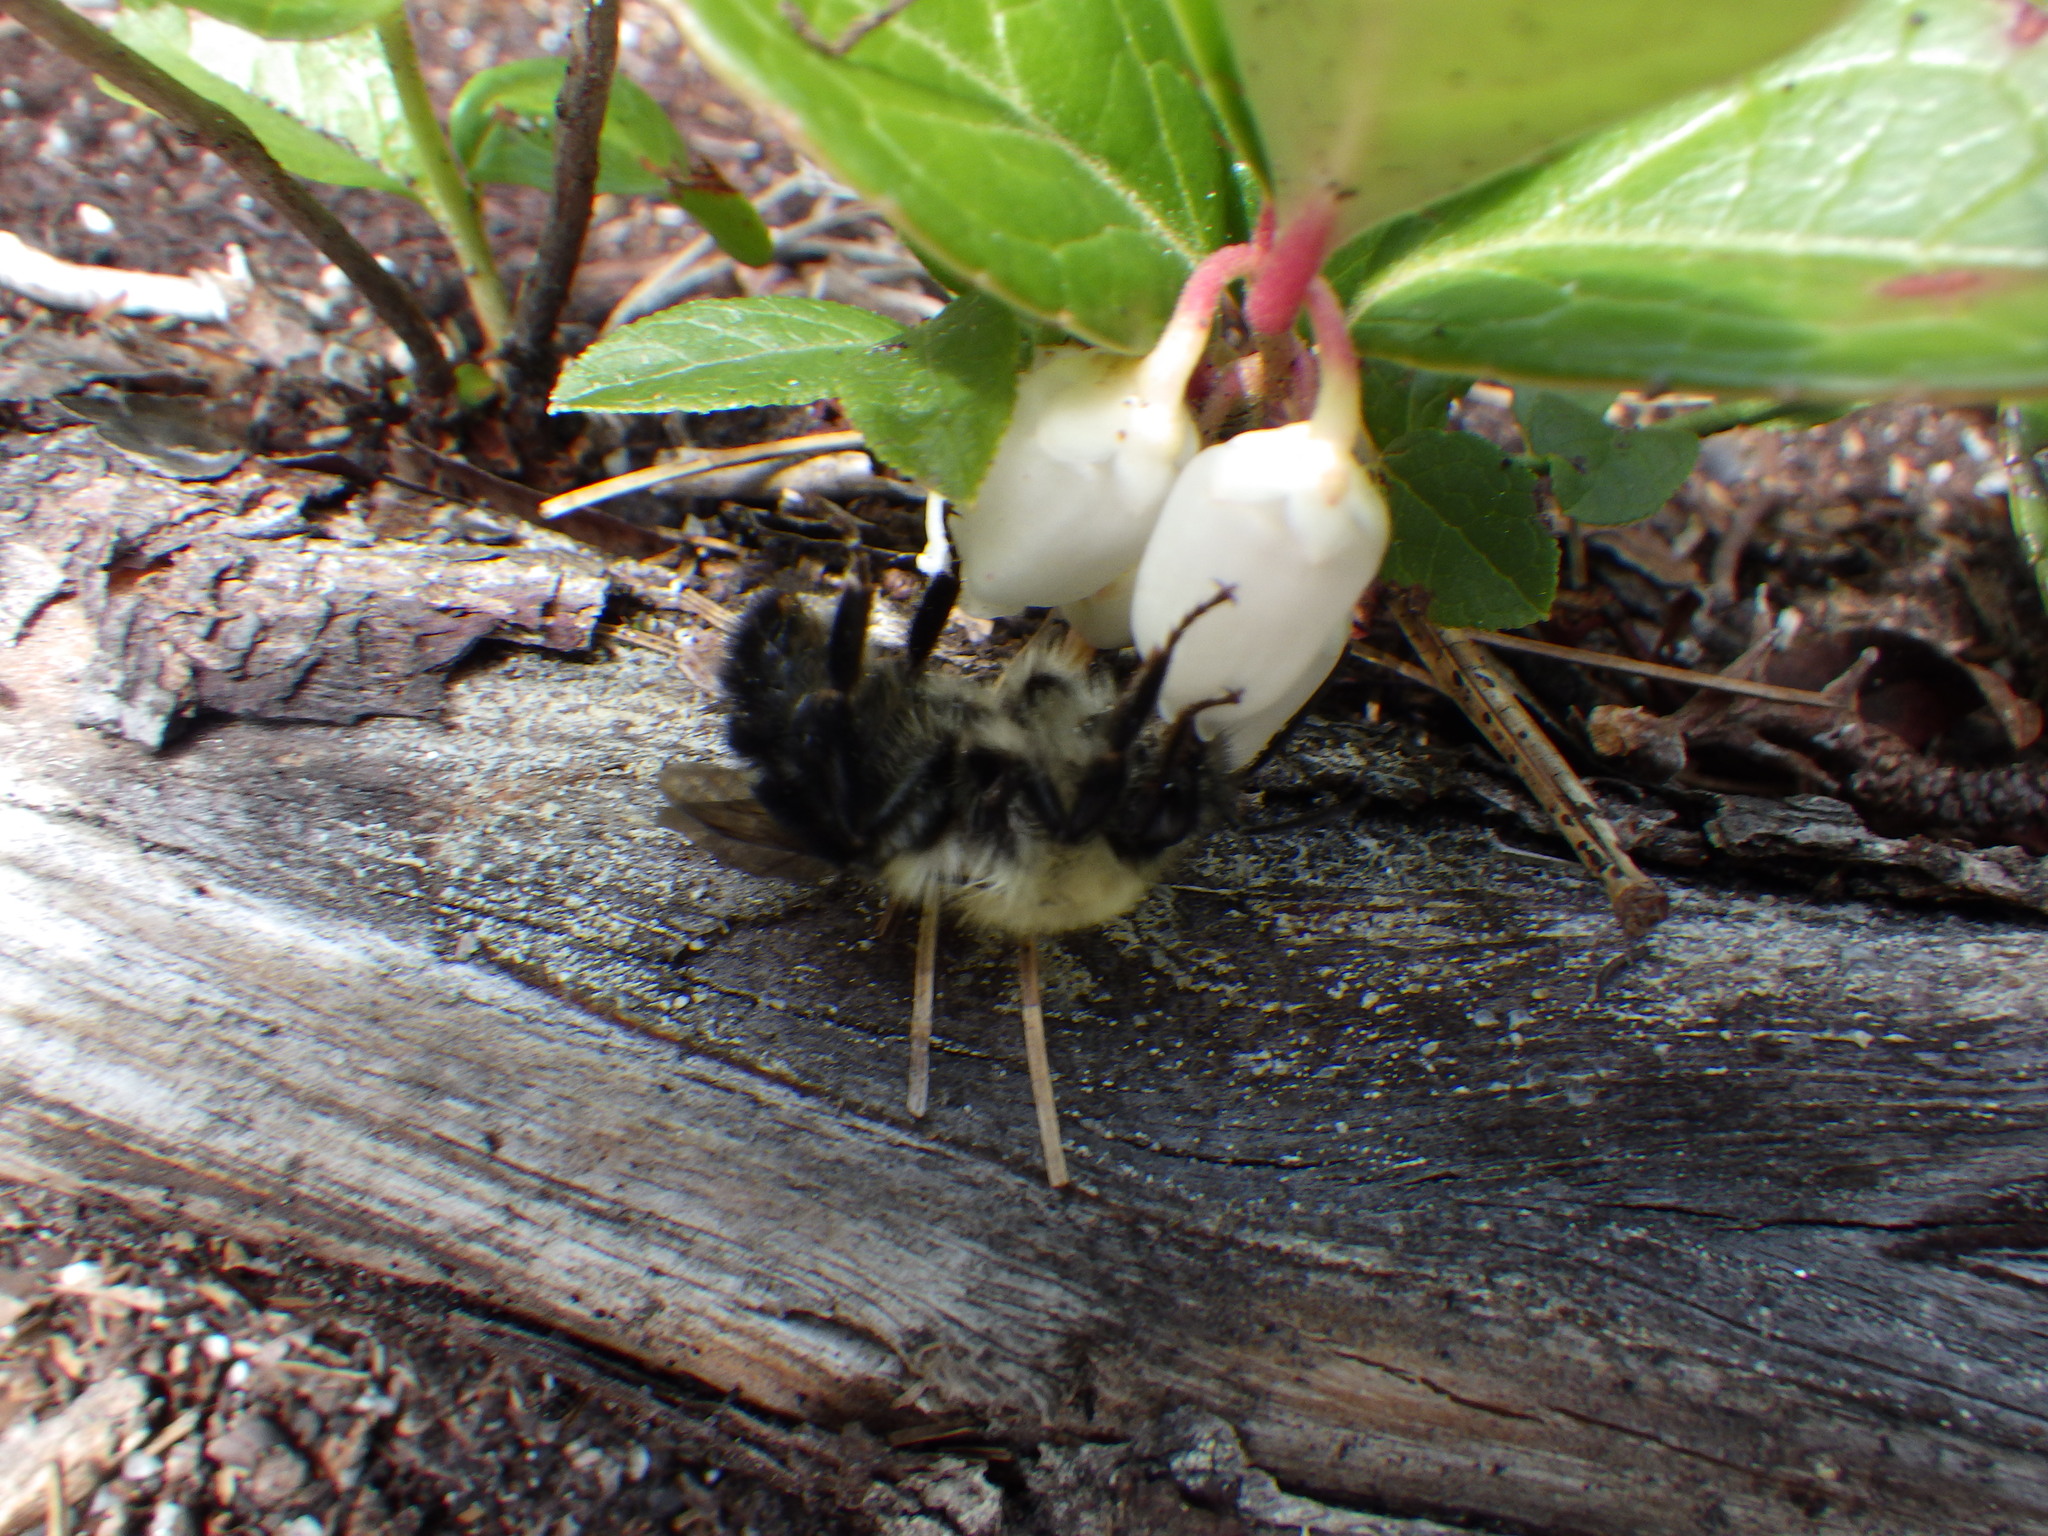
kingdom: Animalia
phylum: Arthropoda
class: Insecta
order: Hymenoptera
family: Apidae
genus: Pyrobombus
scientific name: Pyrobombus
